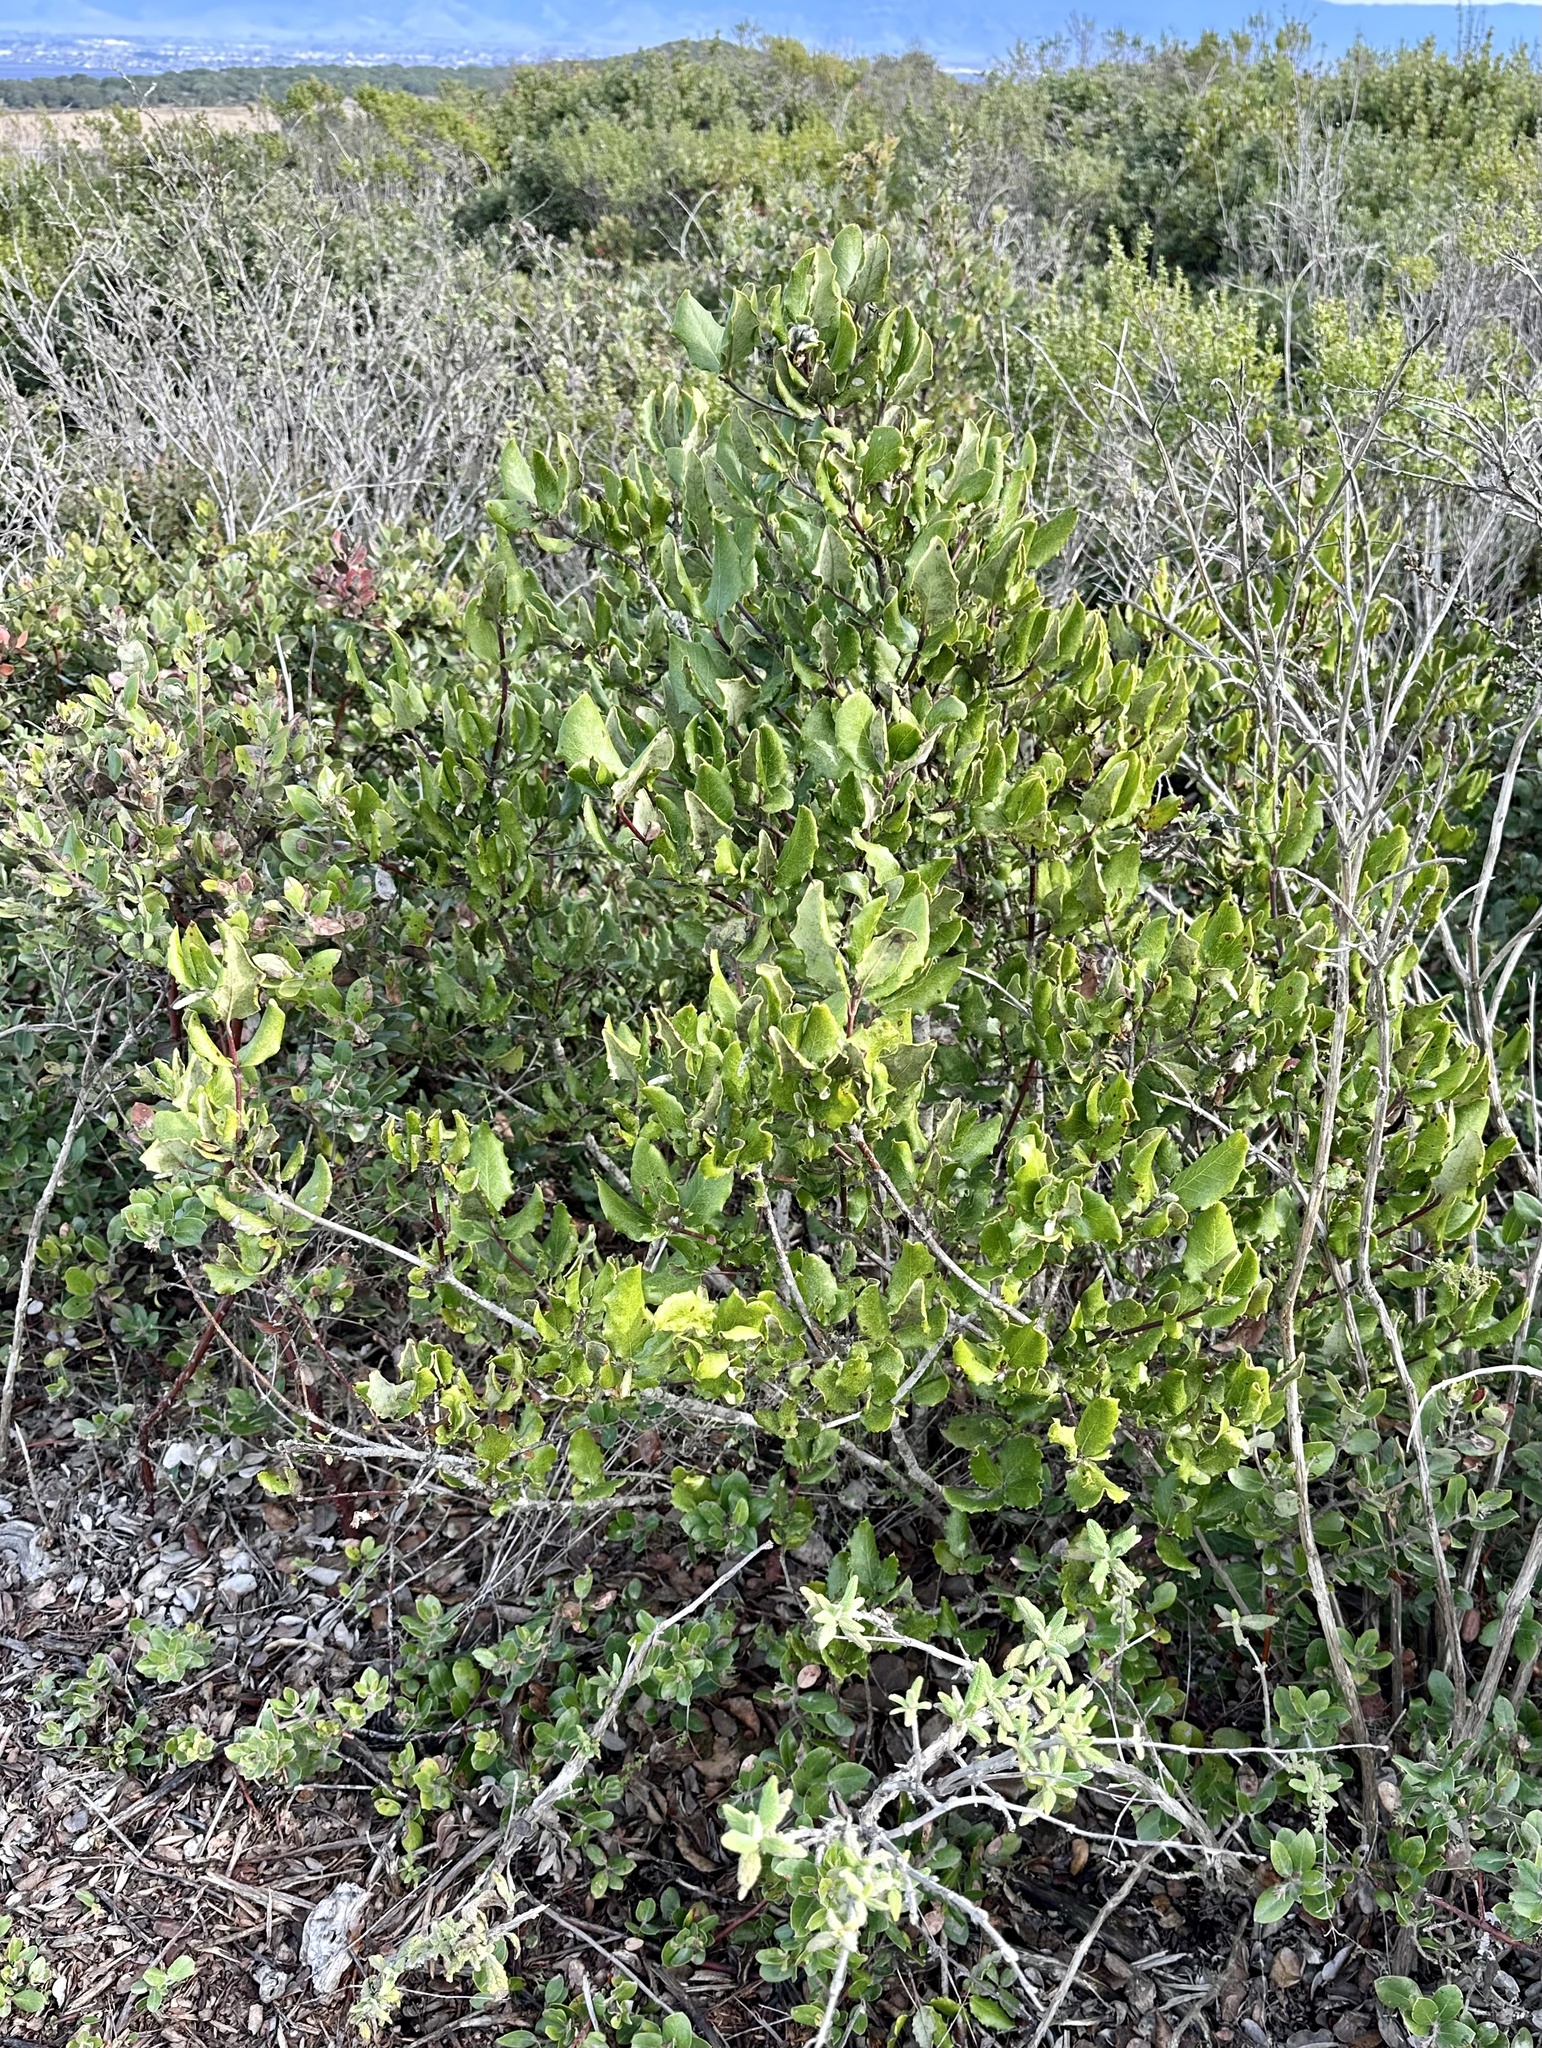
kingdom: Plantae
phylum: Tracheophyta
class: Magnoliopsida
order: Garryales
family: Garryaceae
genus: Garrya
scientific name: Garrya elliptica
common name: Silk-tassel
